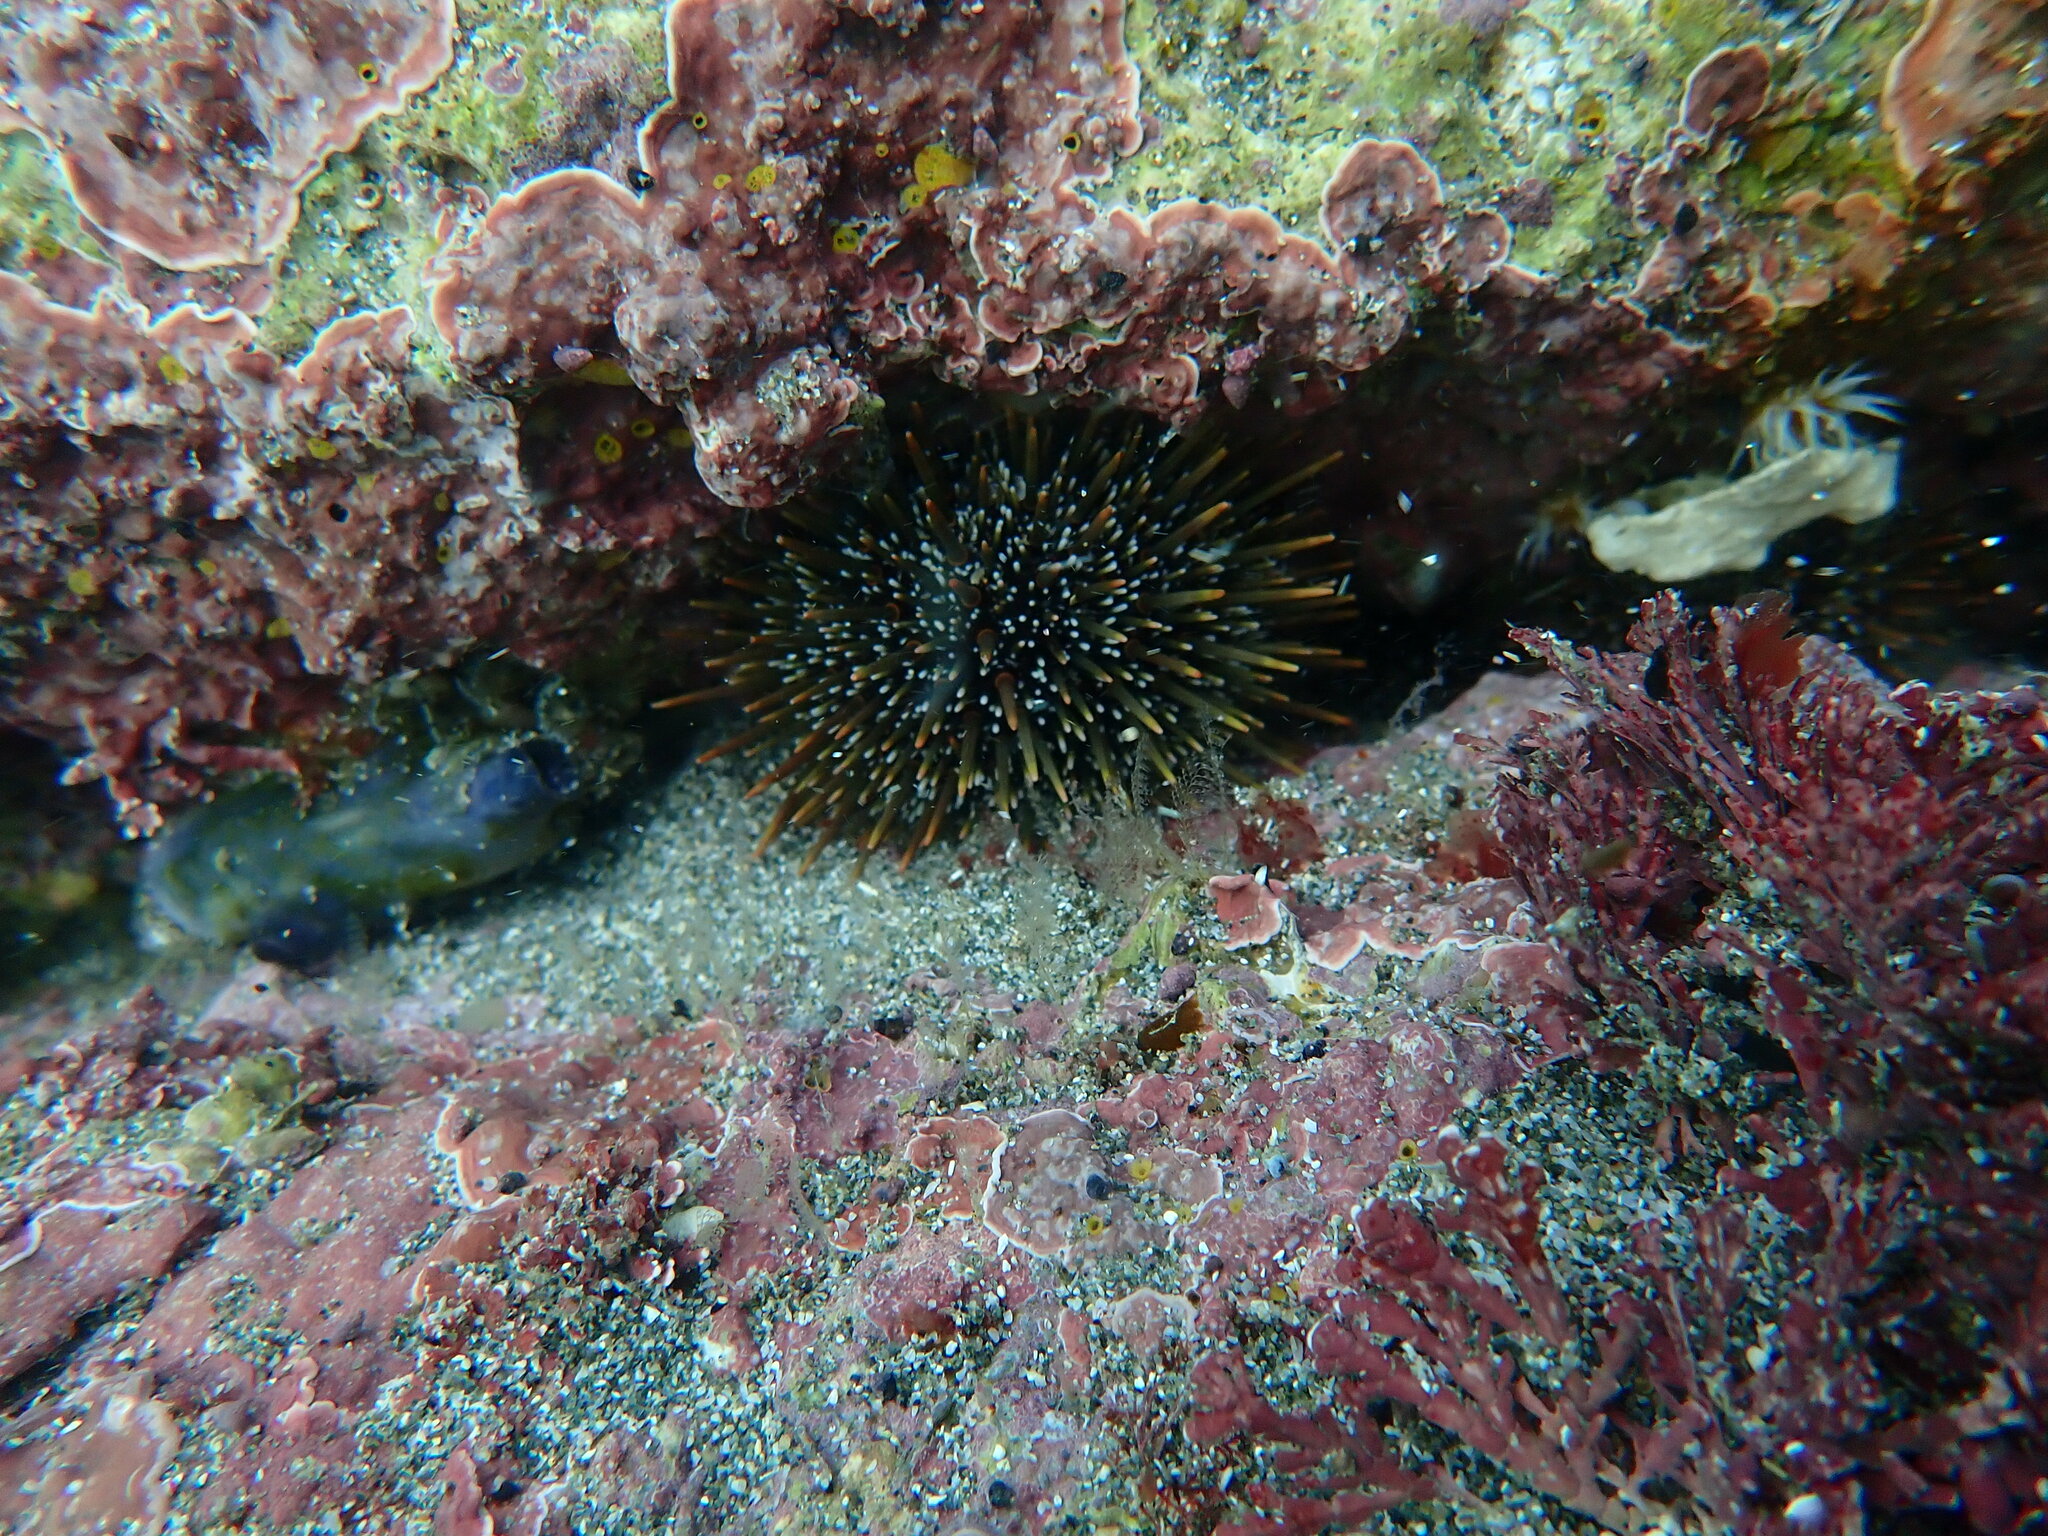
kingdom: Animalia
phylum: Echinodermata
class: Echinoidea
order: Camarodonta
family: Echinometridae
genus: Evechinus
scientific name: Evechinus chloroticus
